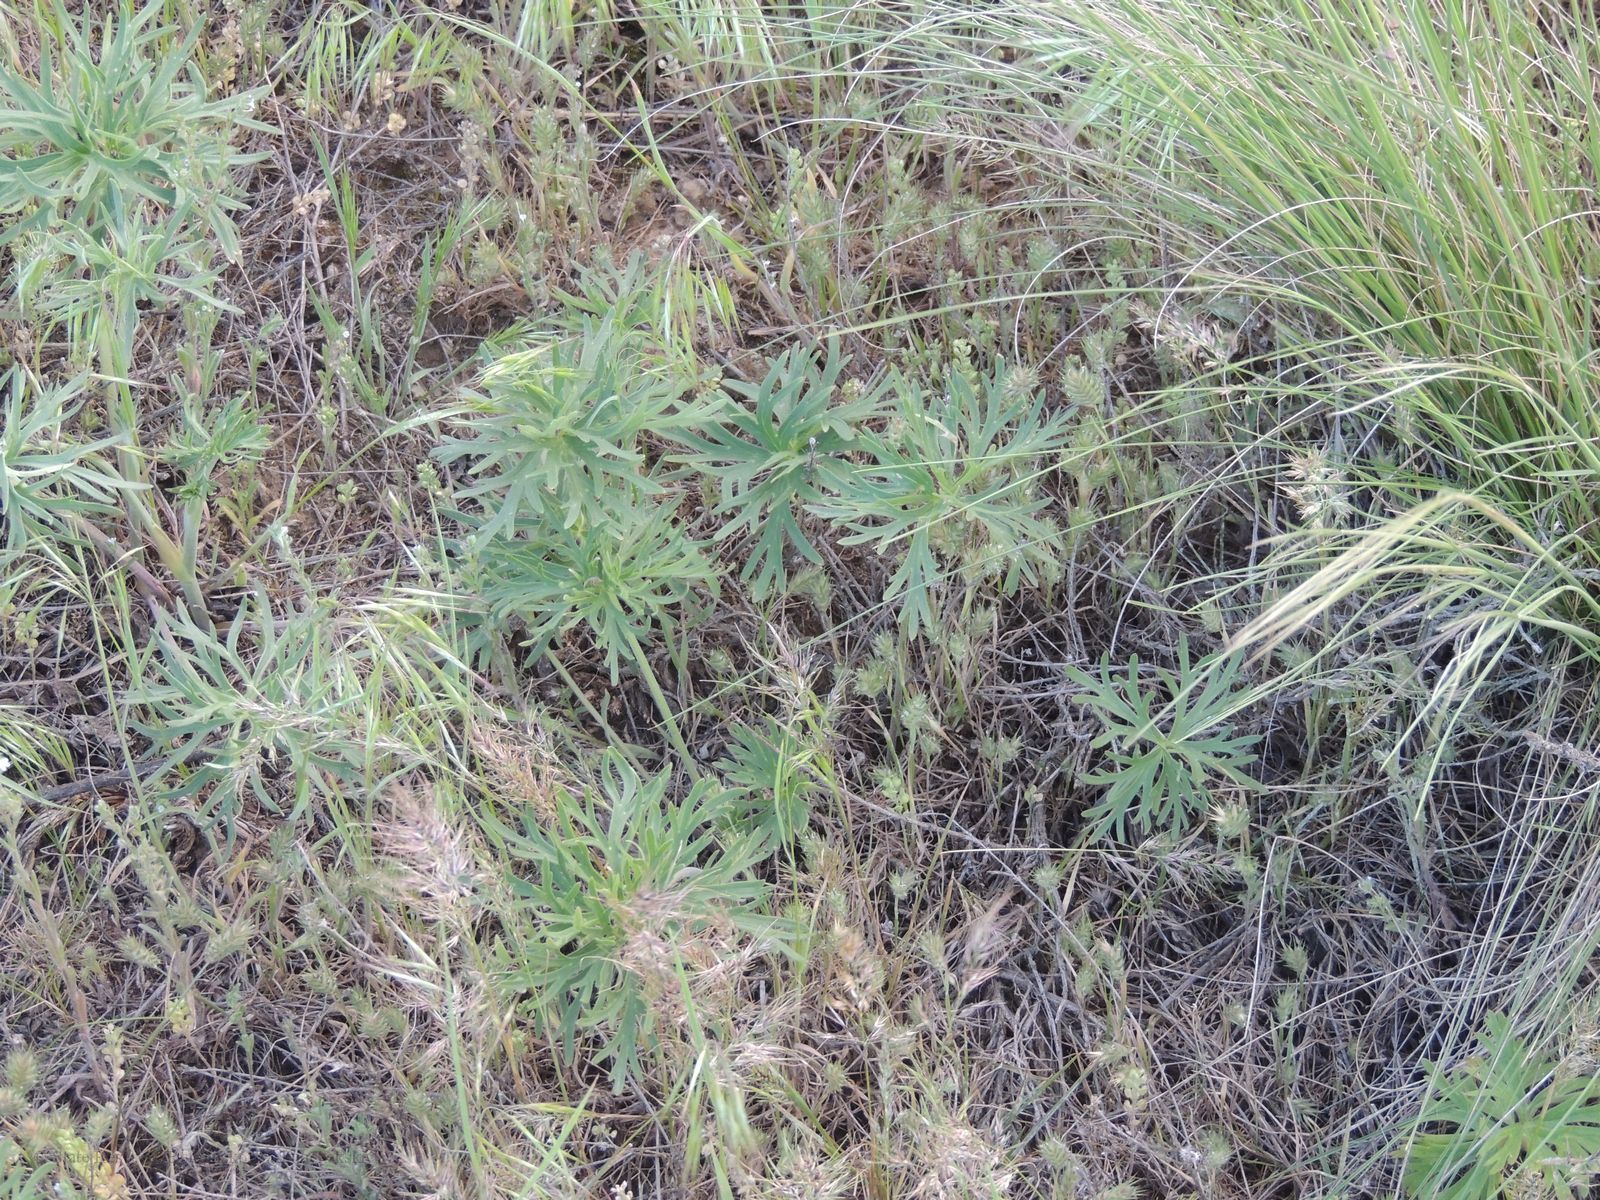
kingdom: Plantae
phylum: Tracheophyta
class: Magnoliopsida
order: Ranunculales
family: Ranunculaceae
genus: Delphinium
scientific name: Delphinium puniceum
